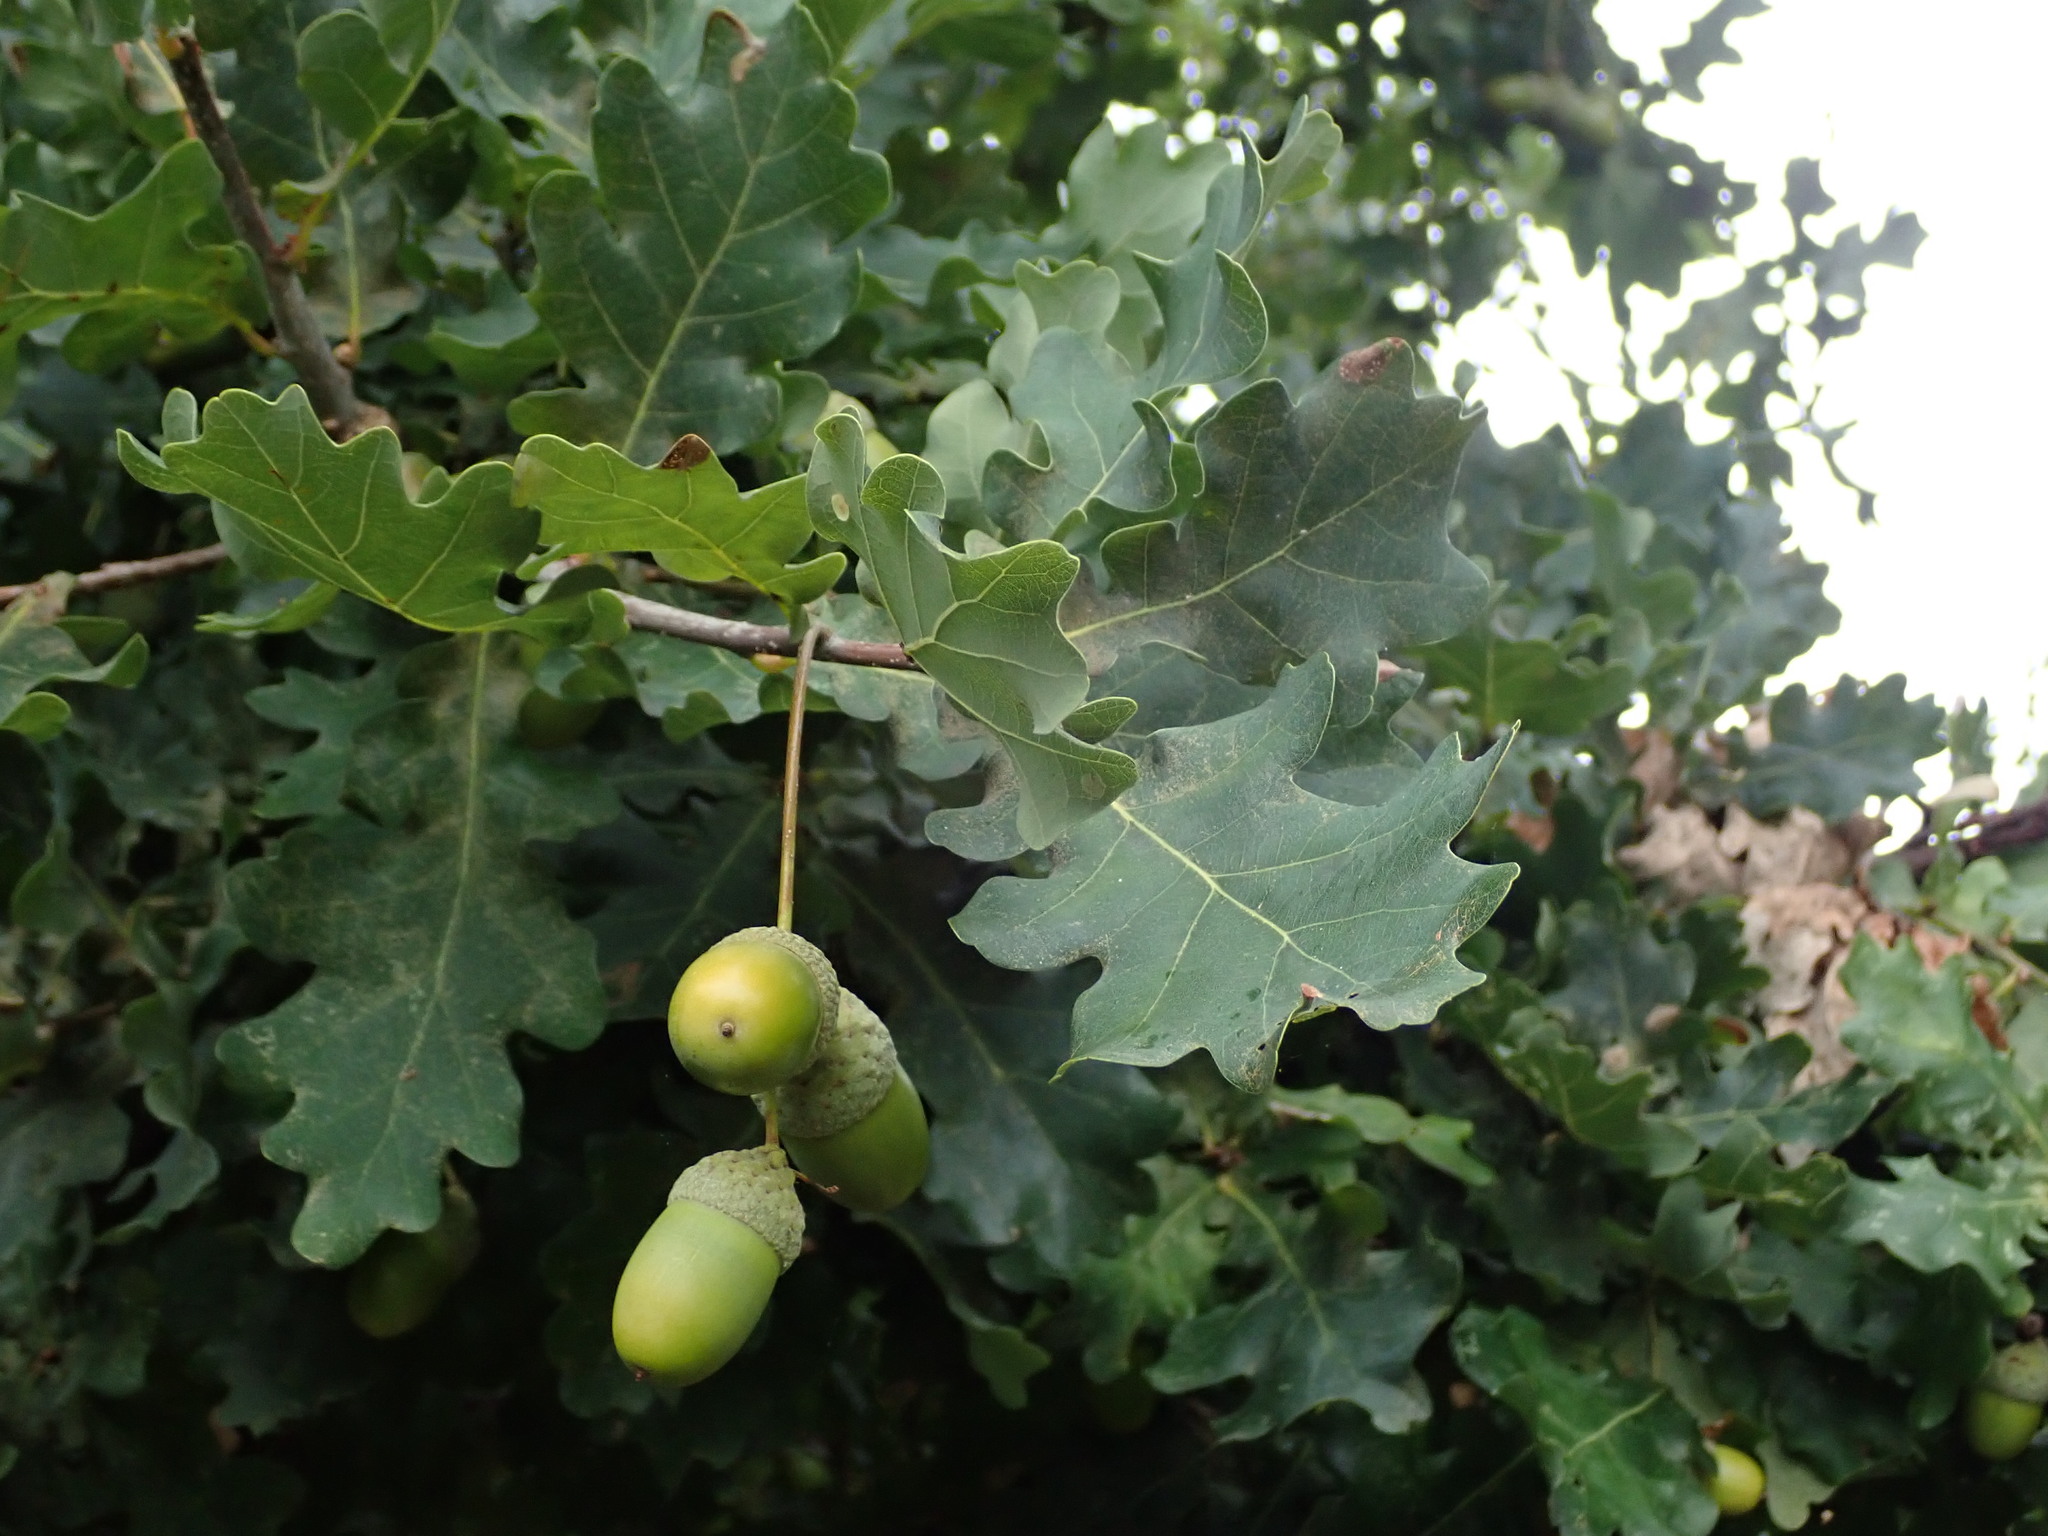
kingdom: Plantae
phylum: Tracheophyta
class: Magnoliopsida
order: Fagales
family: Fagaceae
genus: Quercus
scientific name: Quercus robur
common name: Pedunculate oak
